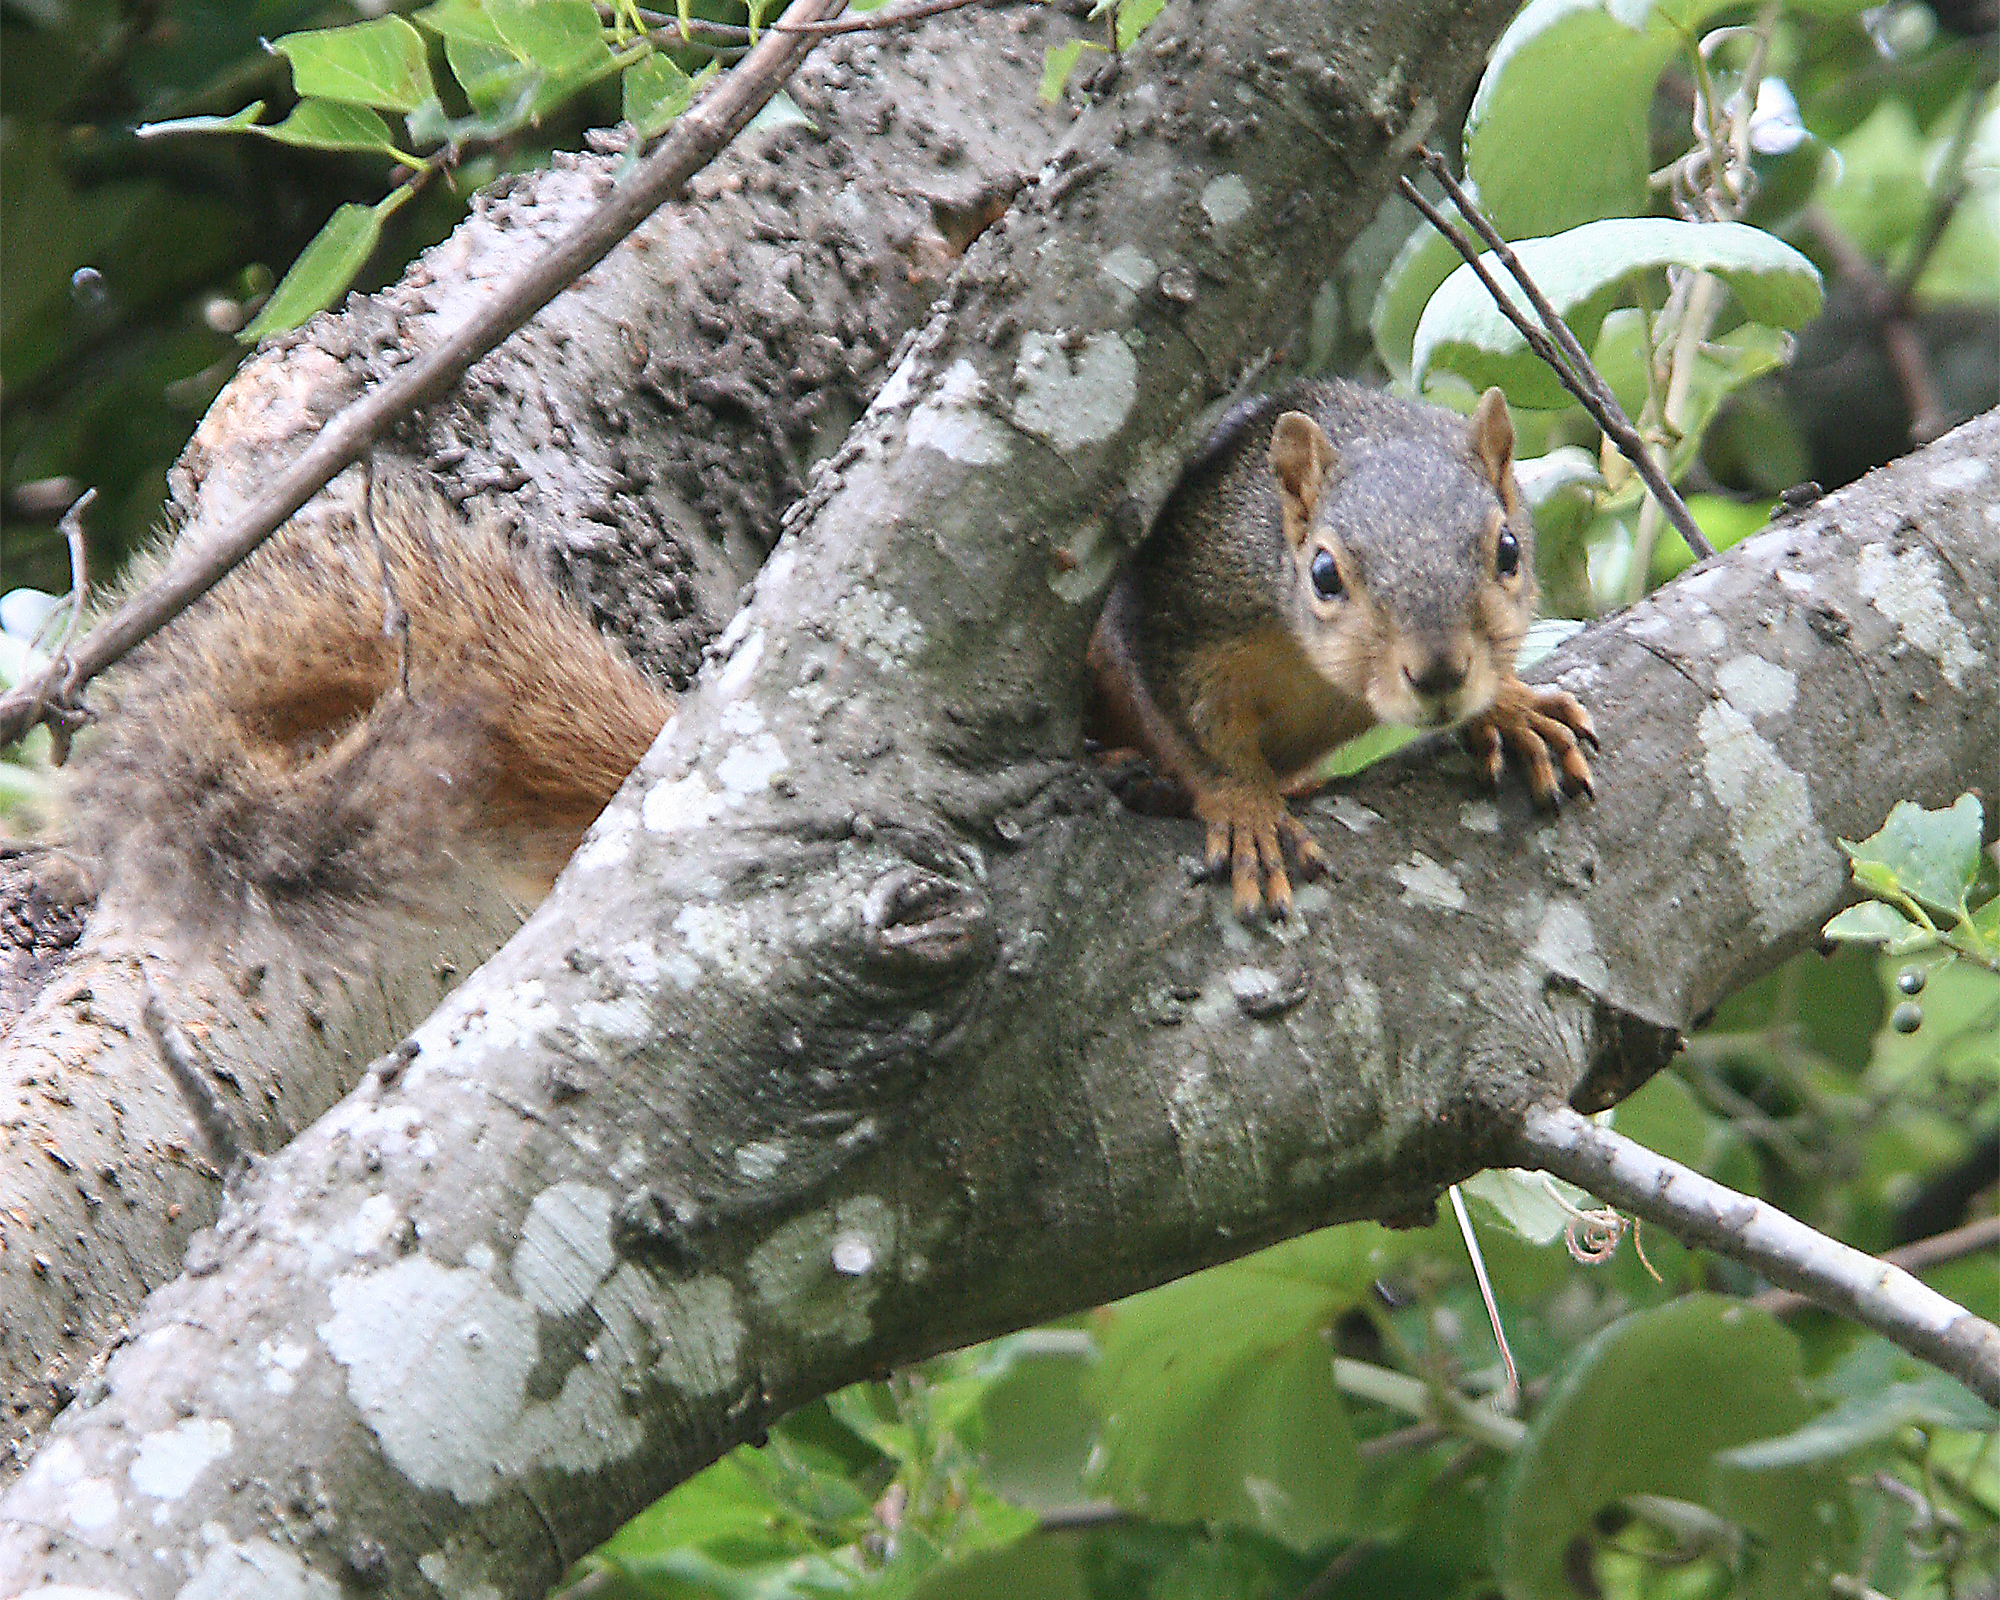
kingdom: Animalia
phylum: Chordata
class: Mammalia
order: Rodentia
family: Sciuridae
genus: Sciurus
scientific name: Sciurus niger
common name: Fox squirrel
